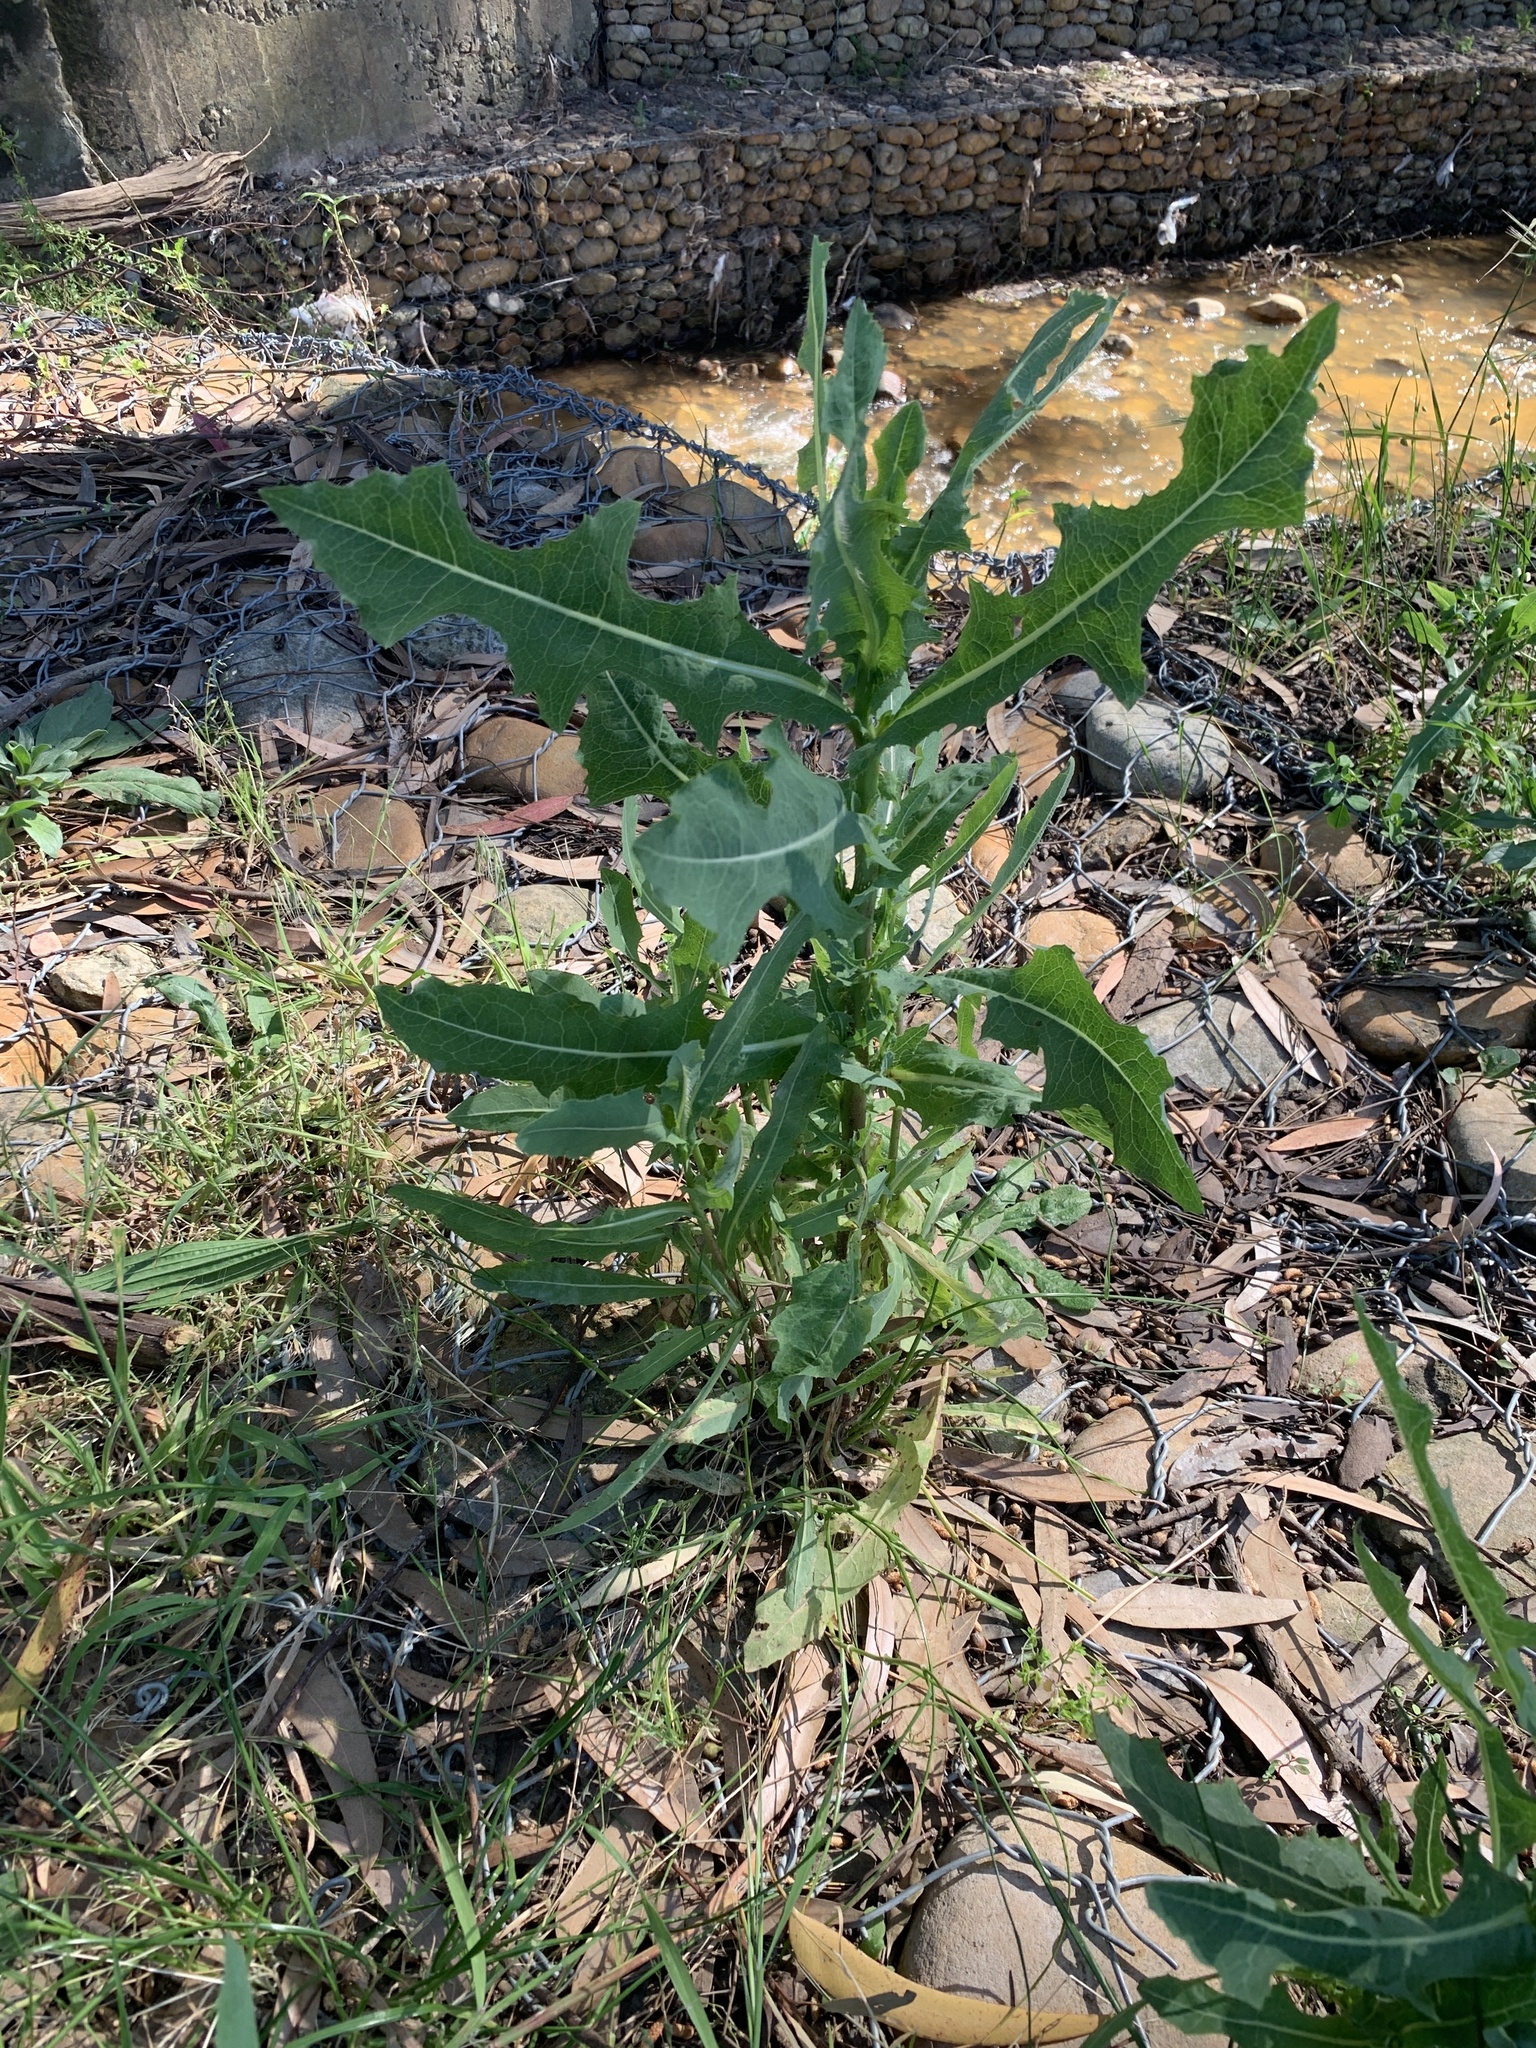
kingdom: Plantae
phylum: Tracheophyta
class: Magnoliopsida
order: Asterales
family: Asteraceae
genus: Lactuca
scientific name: Lactuca serriola
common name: Prickly lettuce
